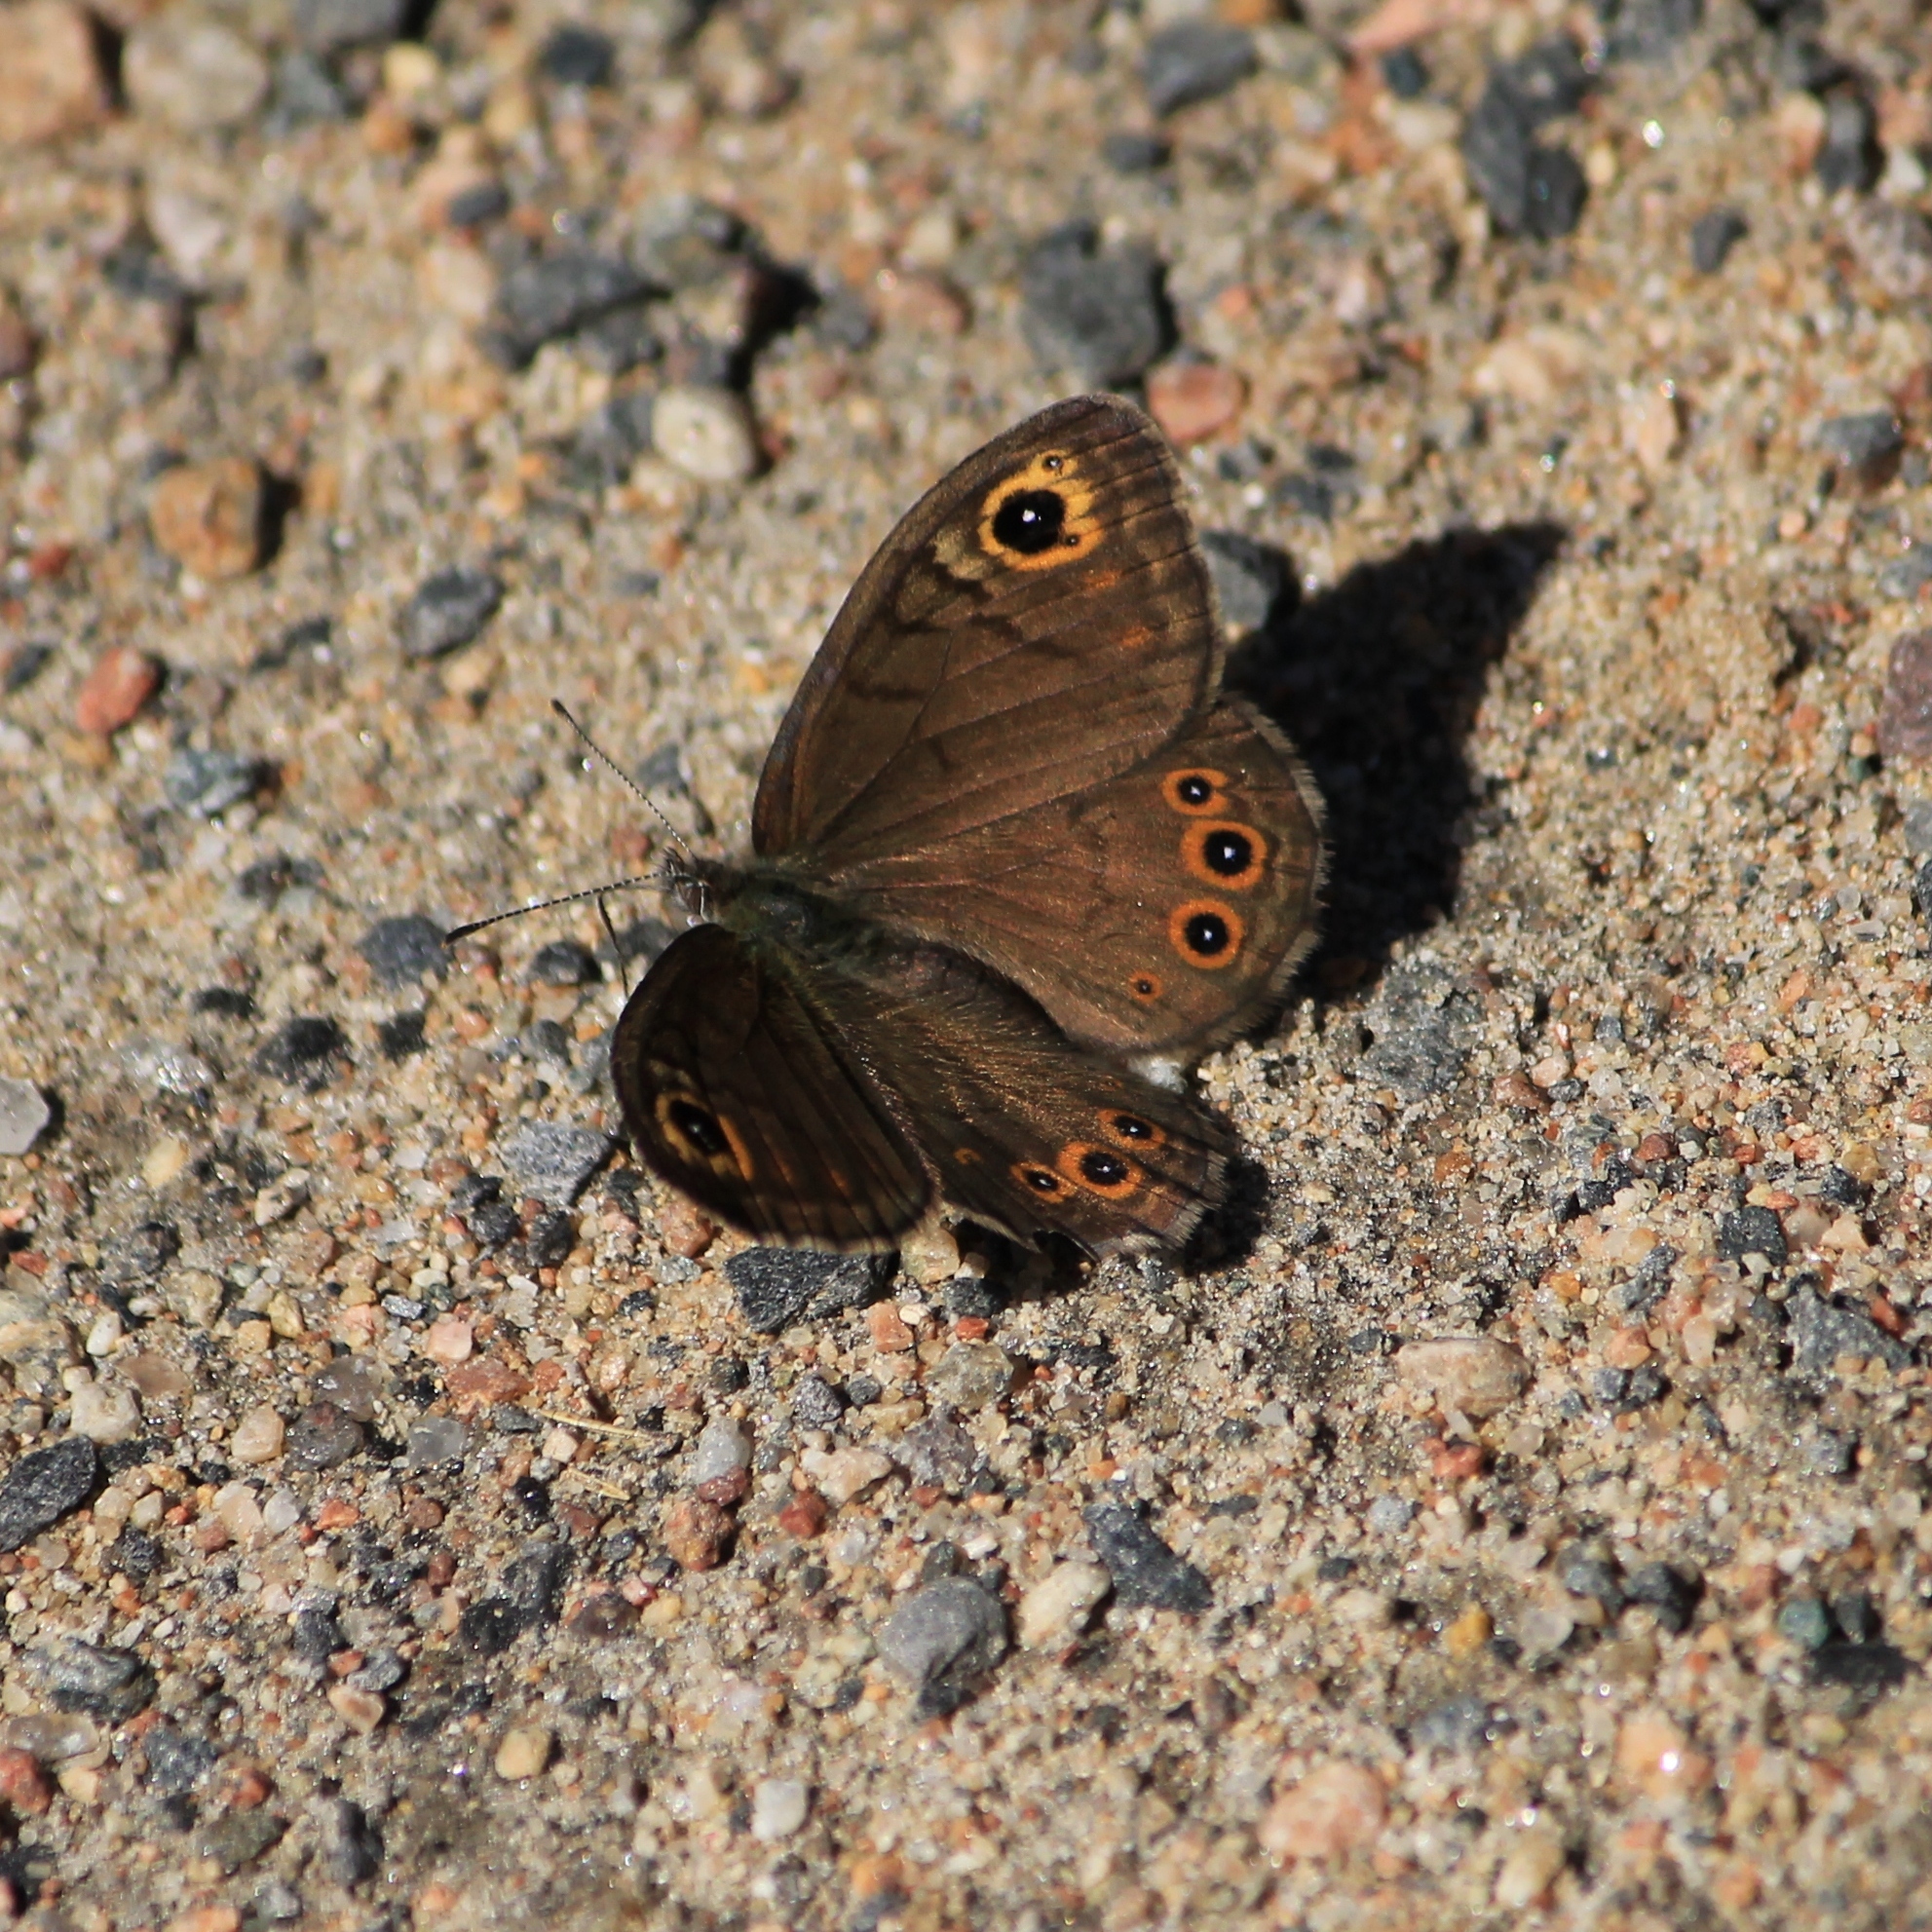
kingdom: Animalia
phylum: Arthropoda
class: Insecta
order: Lepidoptera
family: Nymphalidae
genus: Pararge
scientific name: Pararge petropolitana
